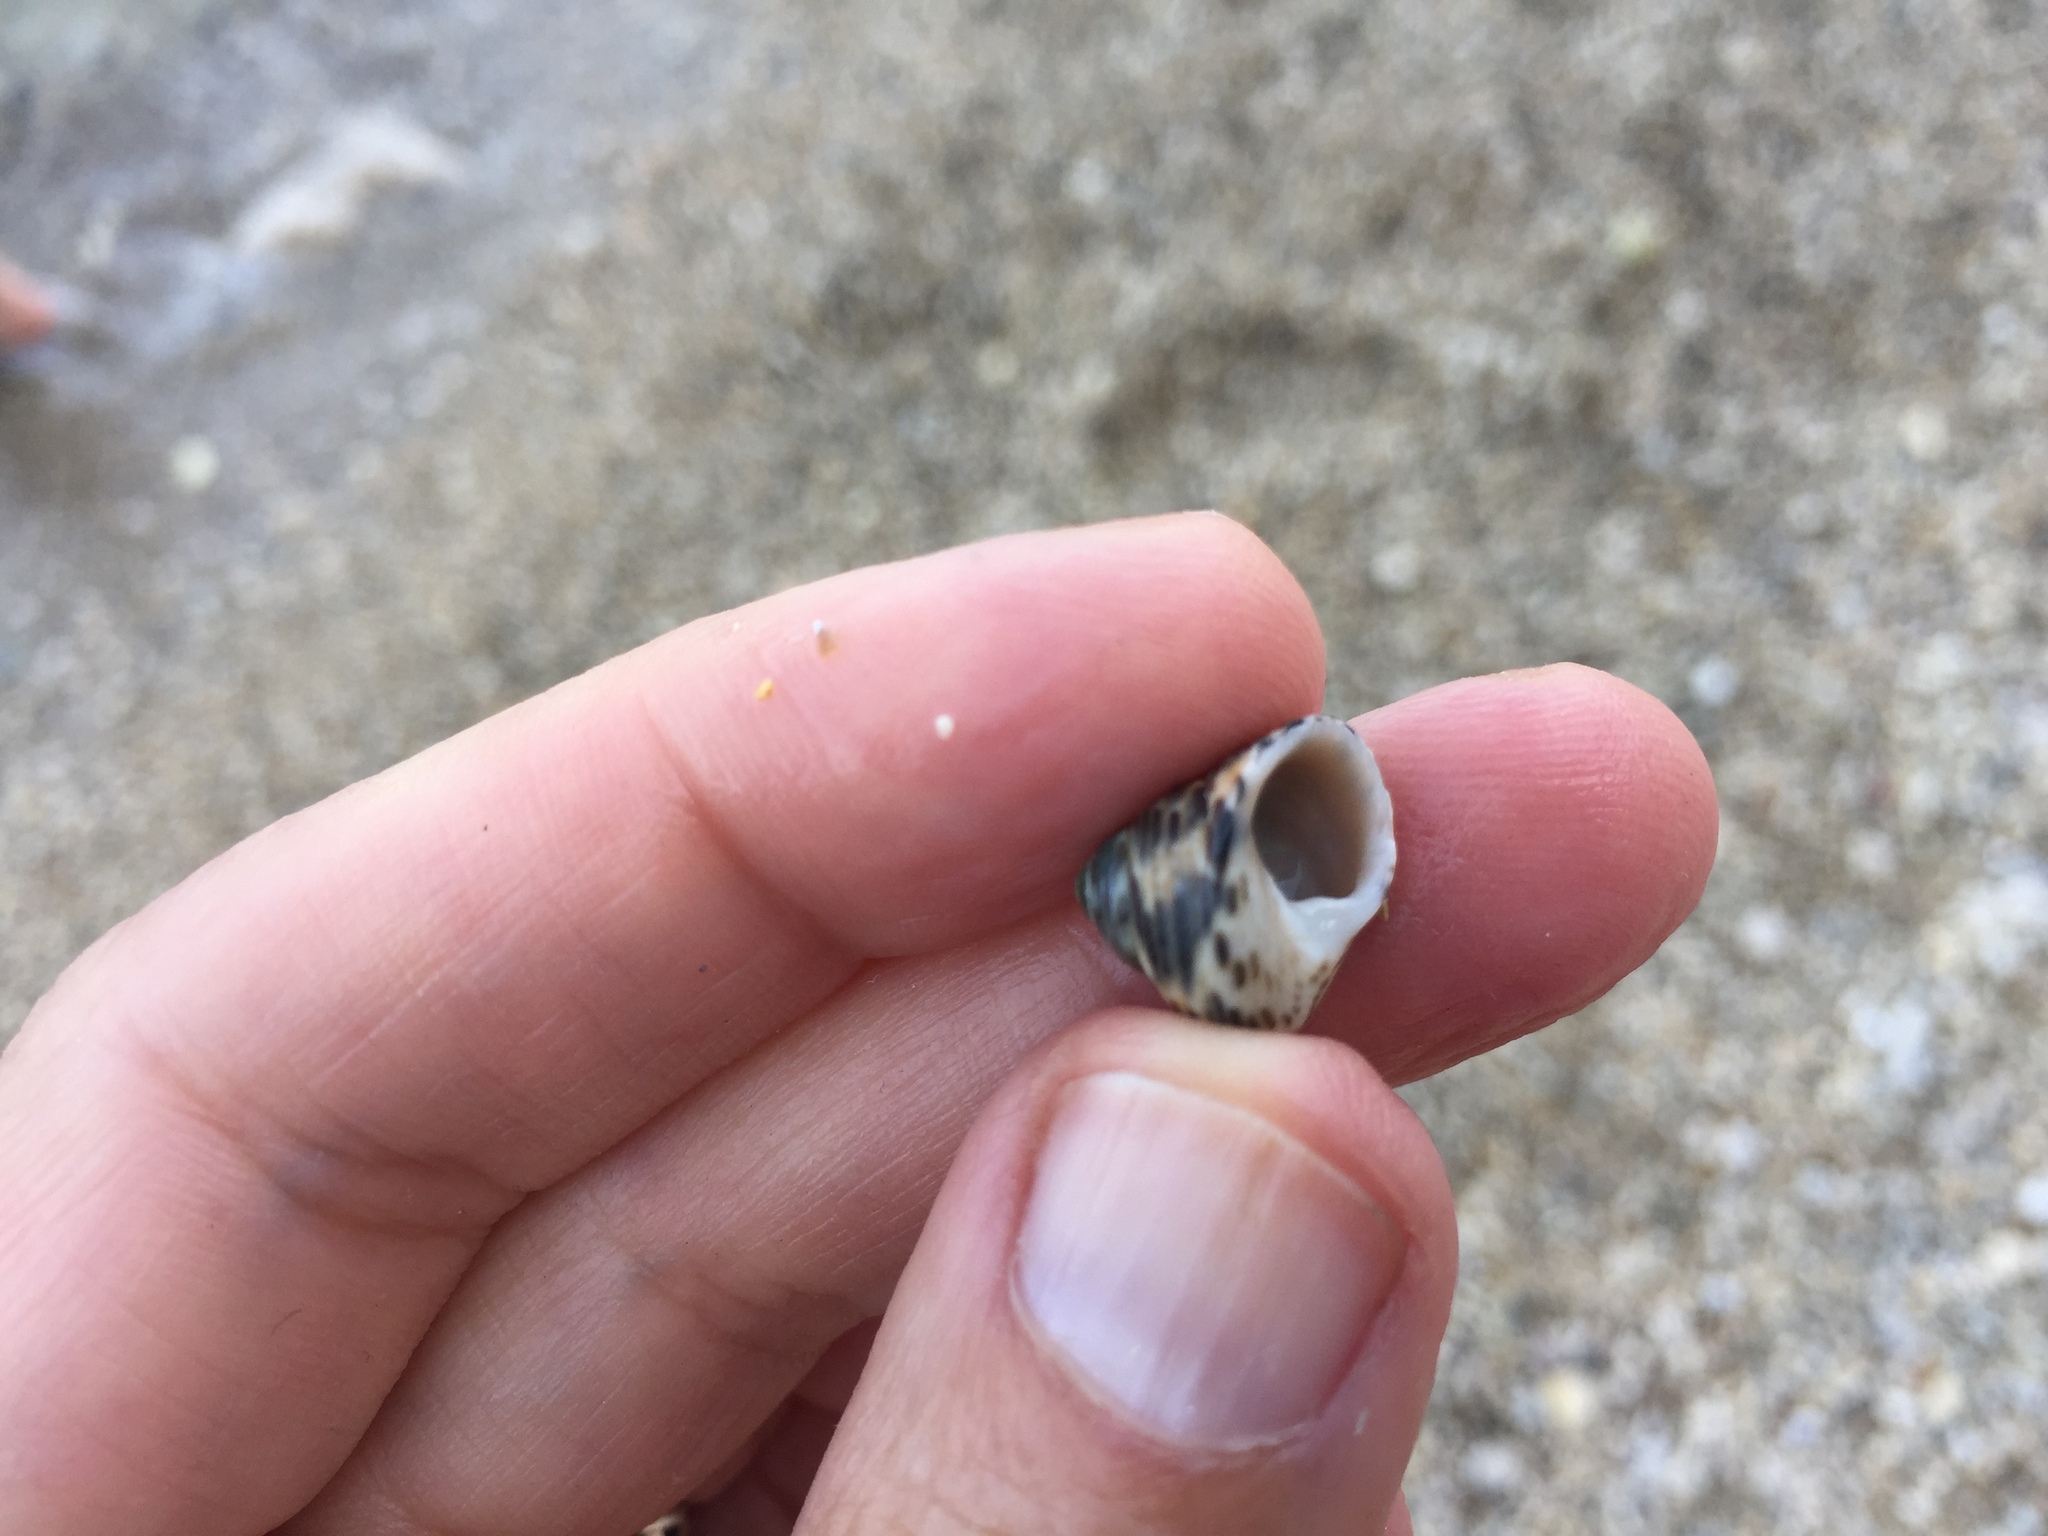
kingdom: Animalia
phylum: Mollusca
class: Gastropoda
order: Trochida
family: Trochidae
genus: Phorcus
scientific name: Phorcus turbinatus
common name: Turbinate monodont
